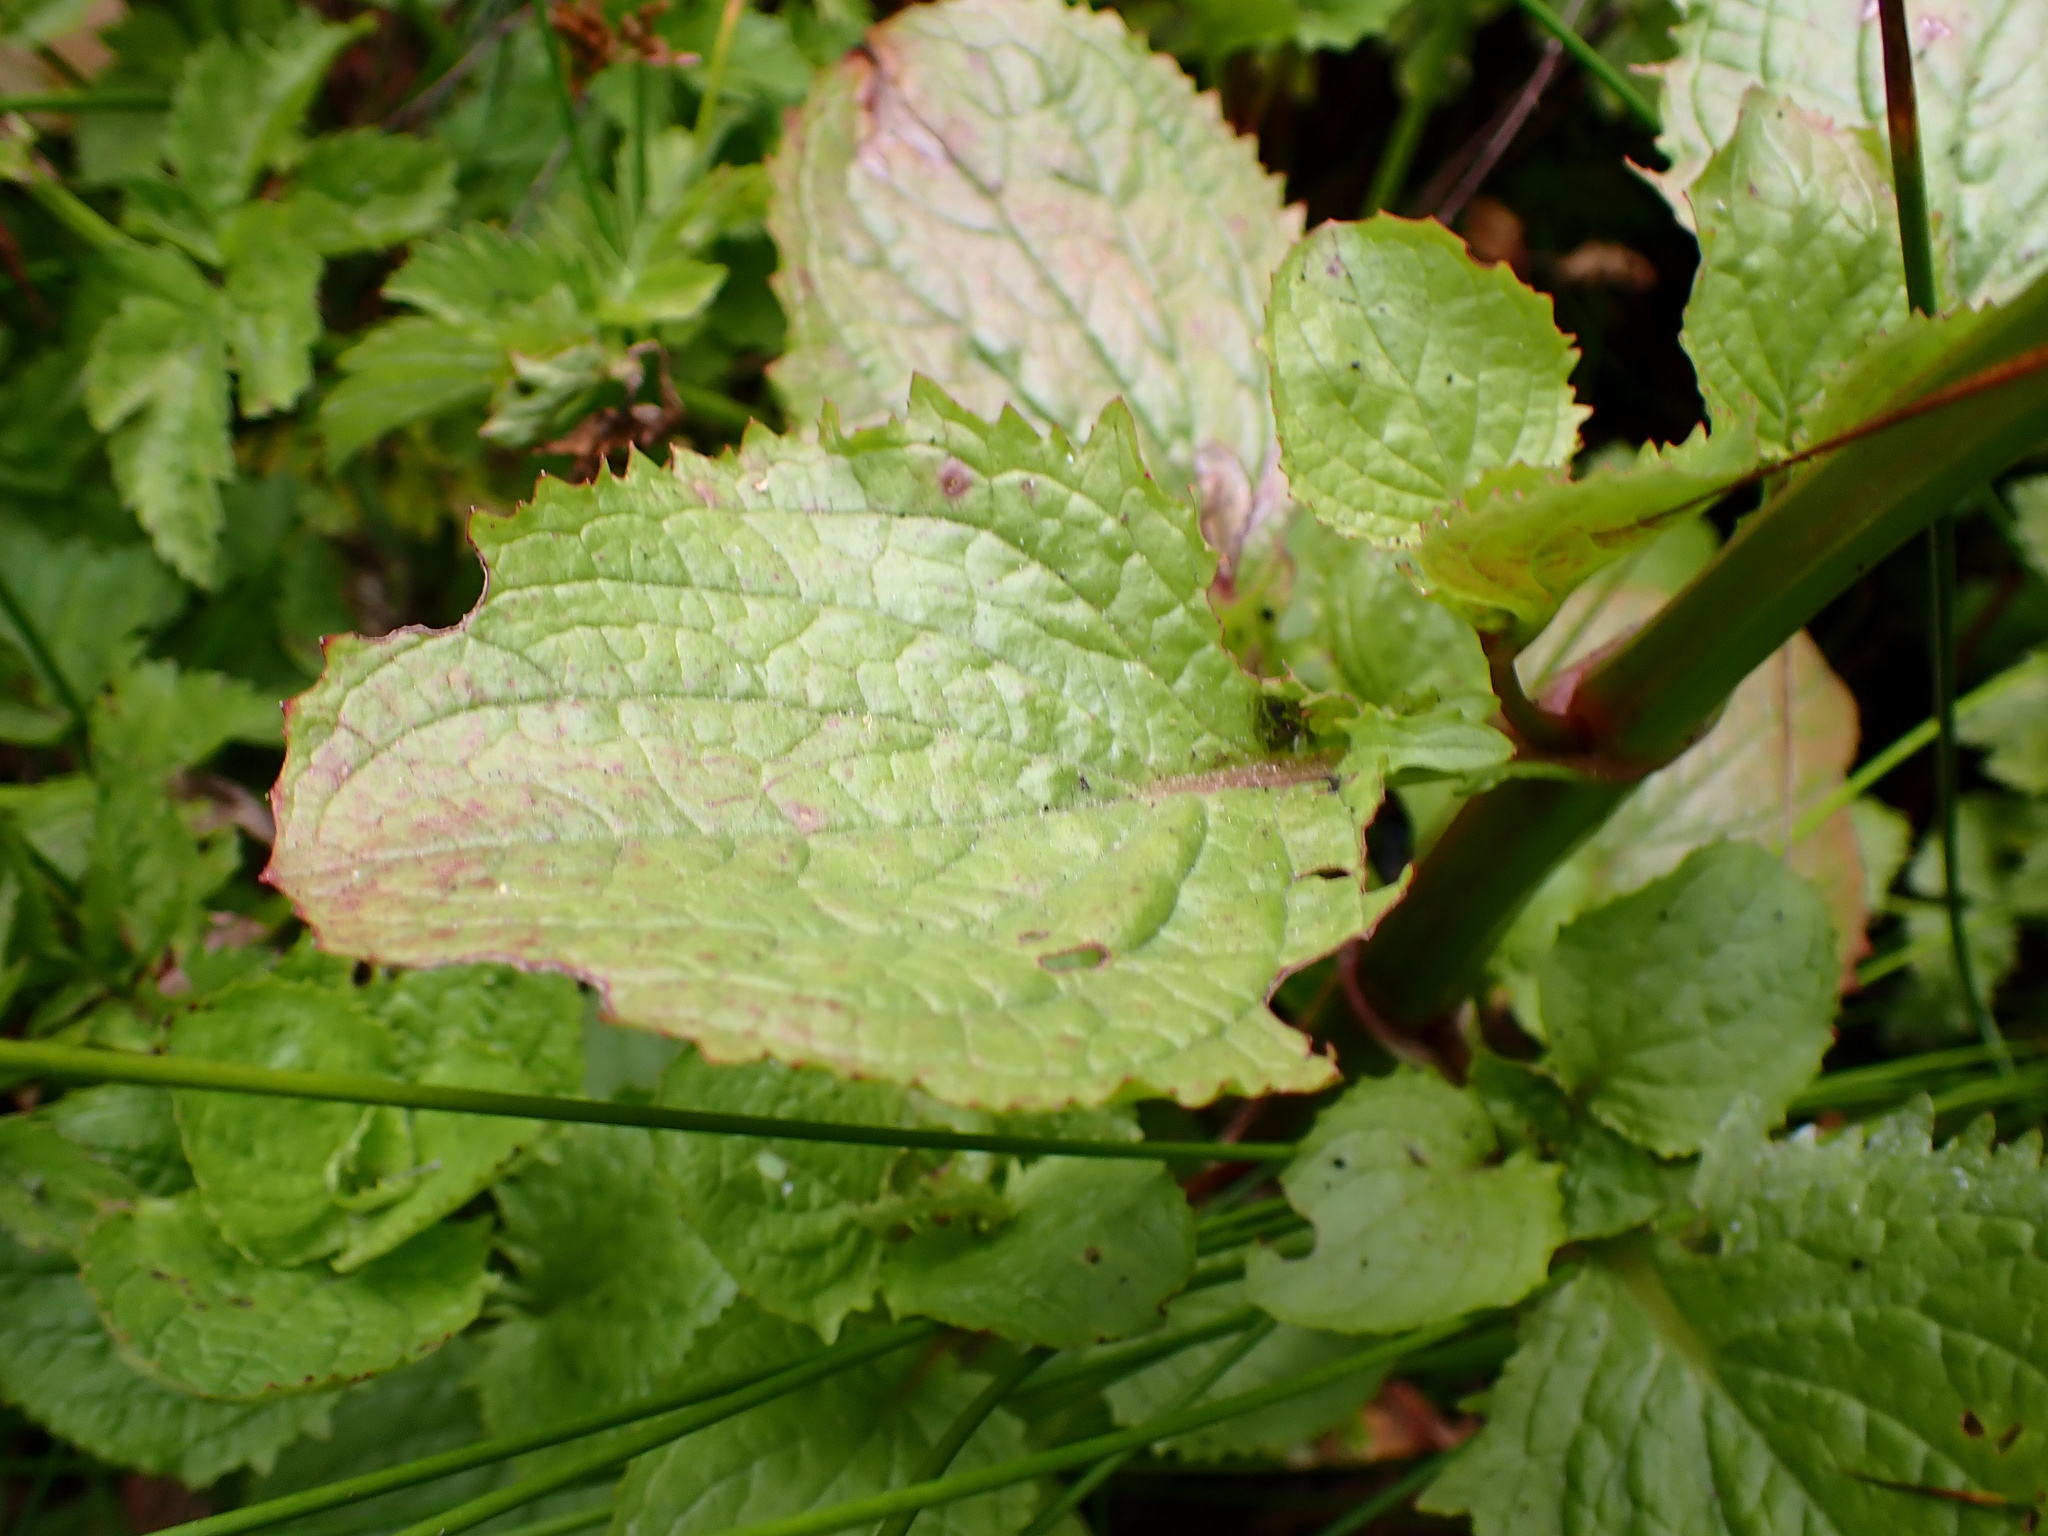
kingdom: Plantae
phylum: Tracheophyta
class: Magnoliopsida
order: Lamiales
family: Phrymaceae
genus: Erythranthe
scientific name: Erythranthe grandis
